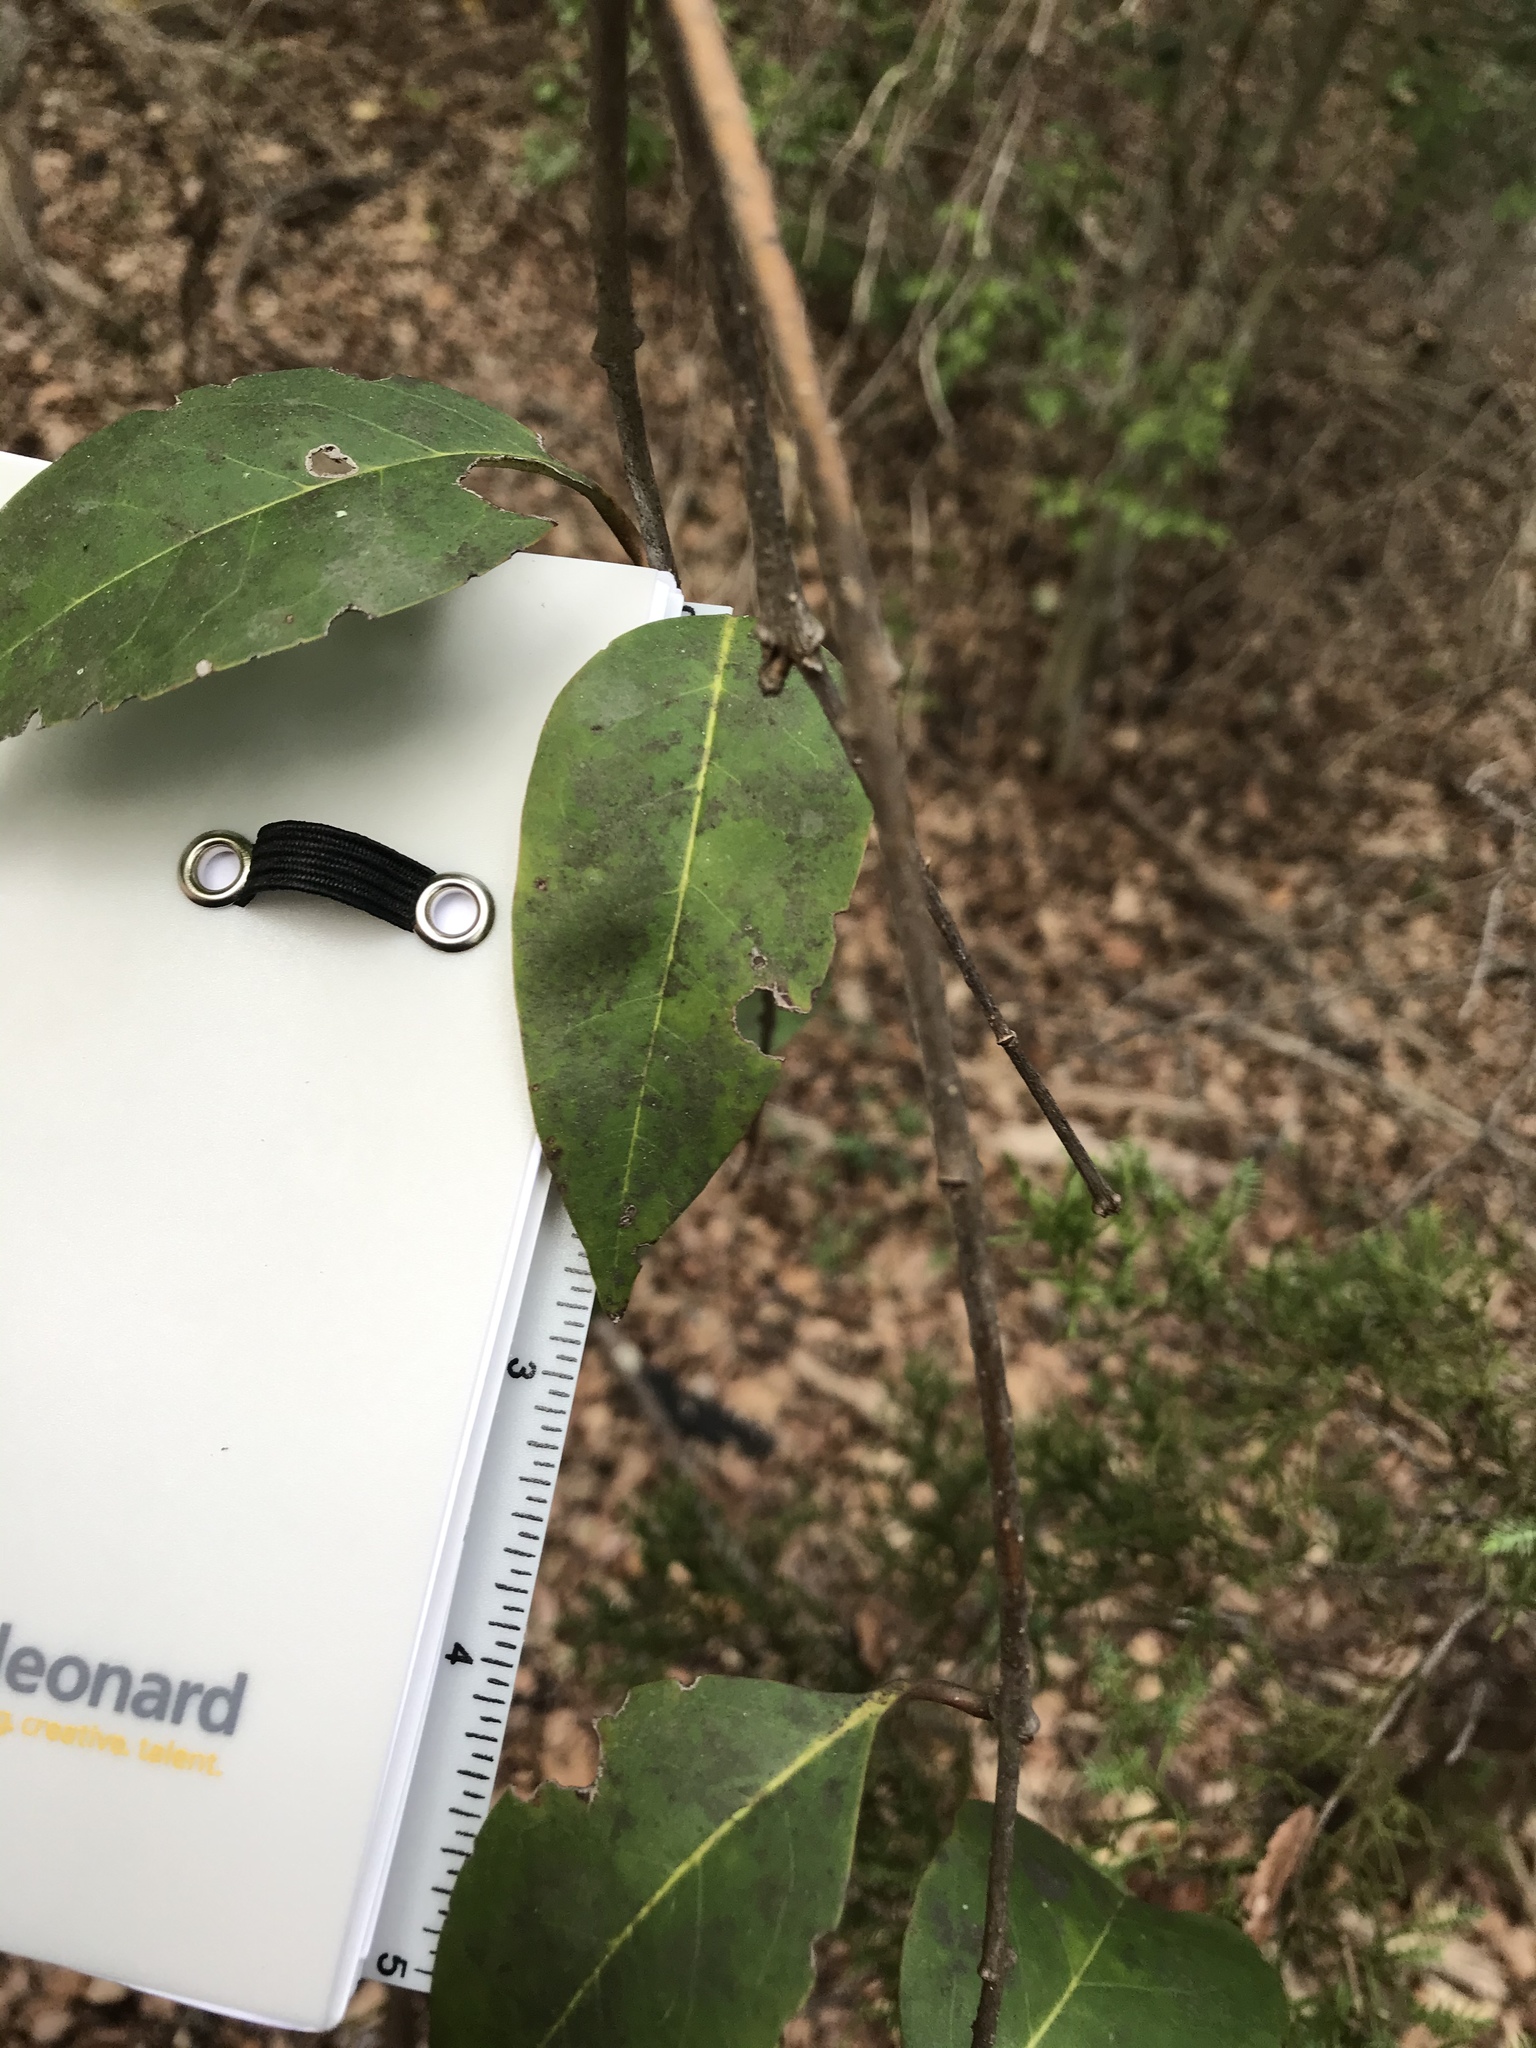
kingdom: Plantae
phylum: Tracheophyta
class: Magnoliopsida
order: Lamiales
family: Oleaceae
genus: Ligustrum
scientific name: Ligustrum lucidum
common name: Glossy privet
